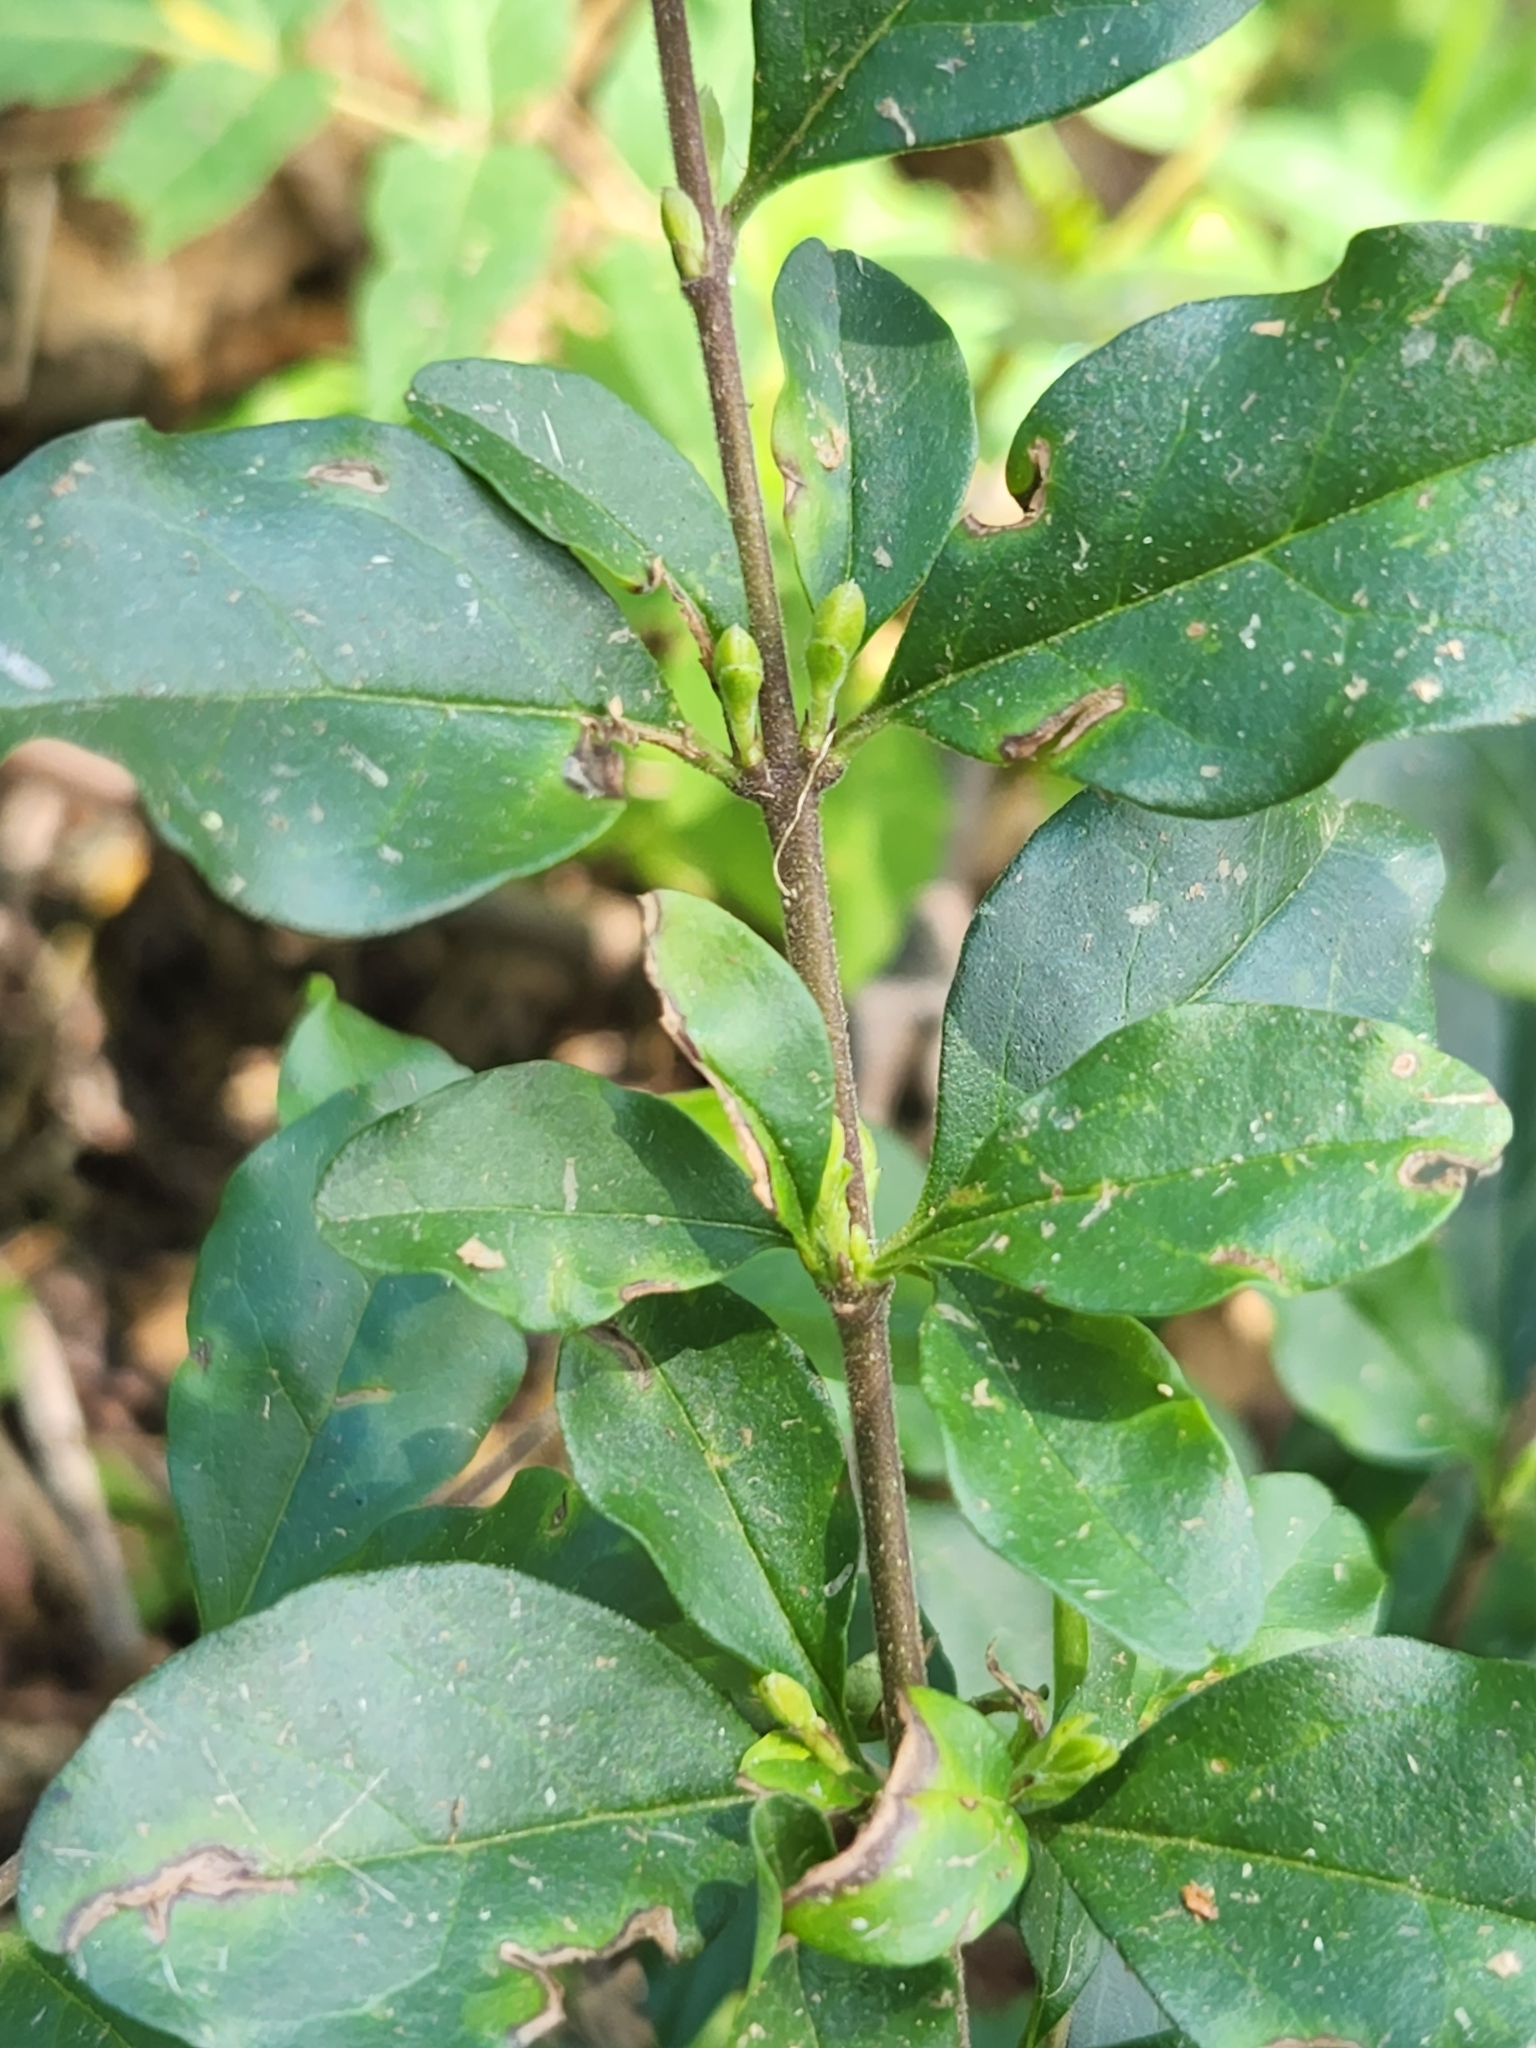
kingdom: Plantae
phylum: Tracheophyta
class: Magnoliopsida
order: Lamiales
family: Oleaceae
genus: Ligustrum
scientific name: Ligustrum sinense
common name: Chinese privet
